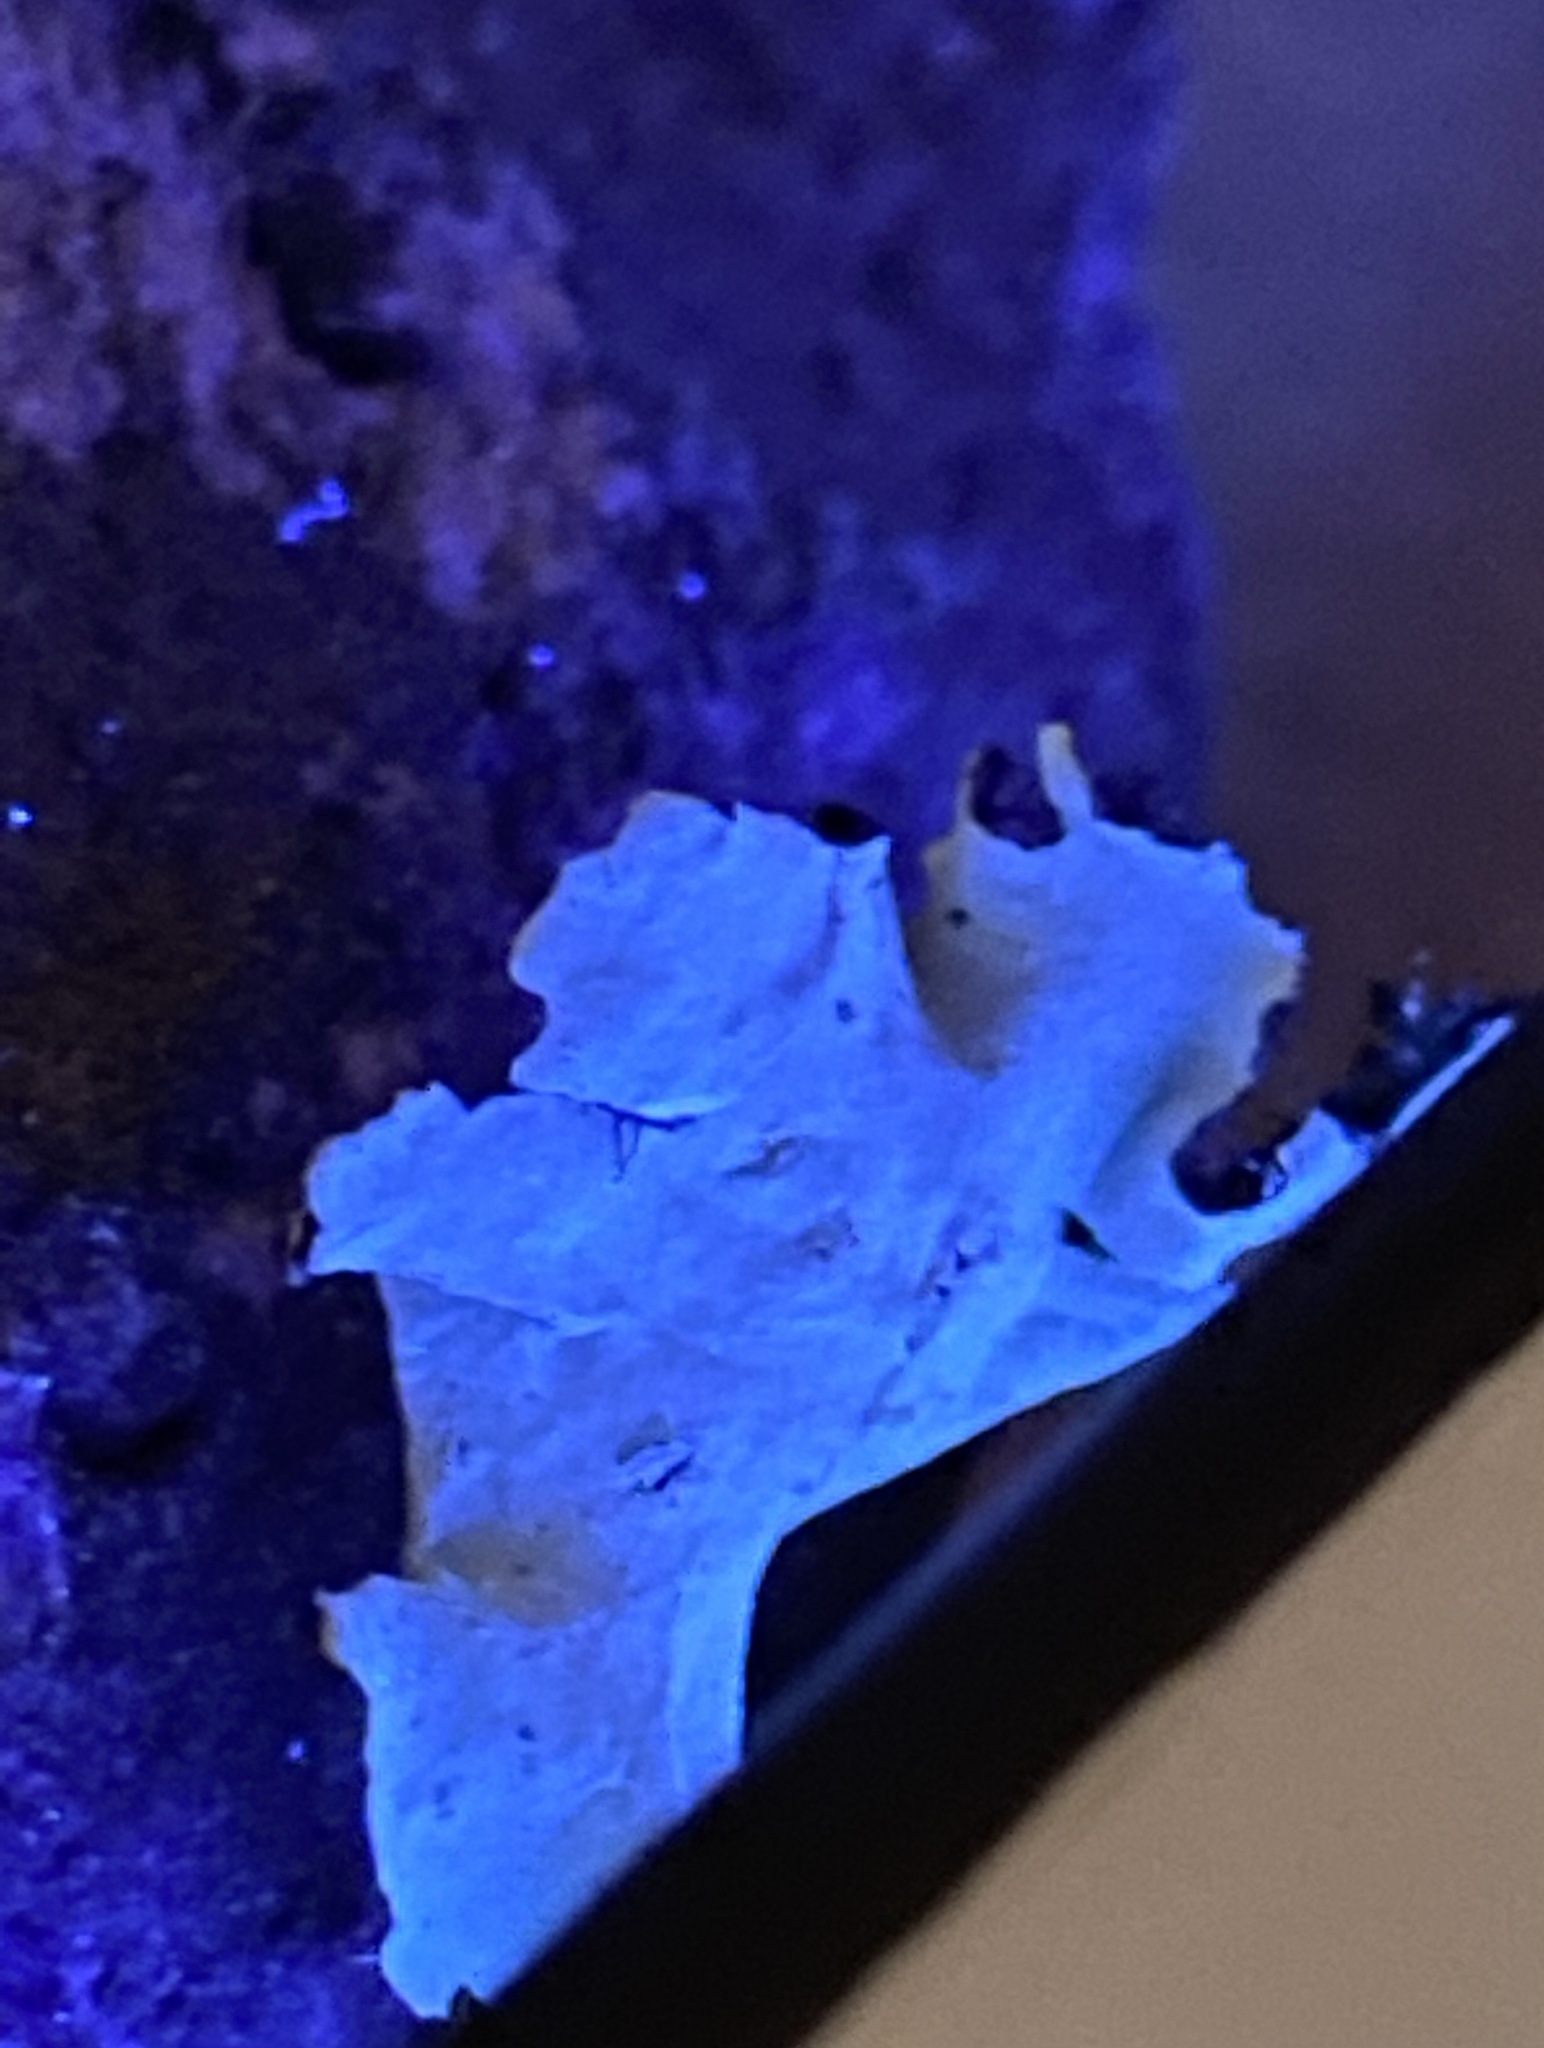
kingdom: Fungi
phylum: Ascomycota
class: Lecanoromycetes
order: Lecanorales
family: Parmeliaceae
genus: Parmotrema
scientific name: Parmotrema perlatum
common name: Black stone flower
